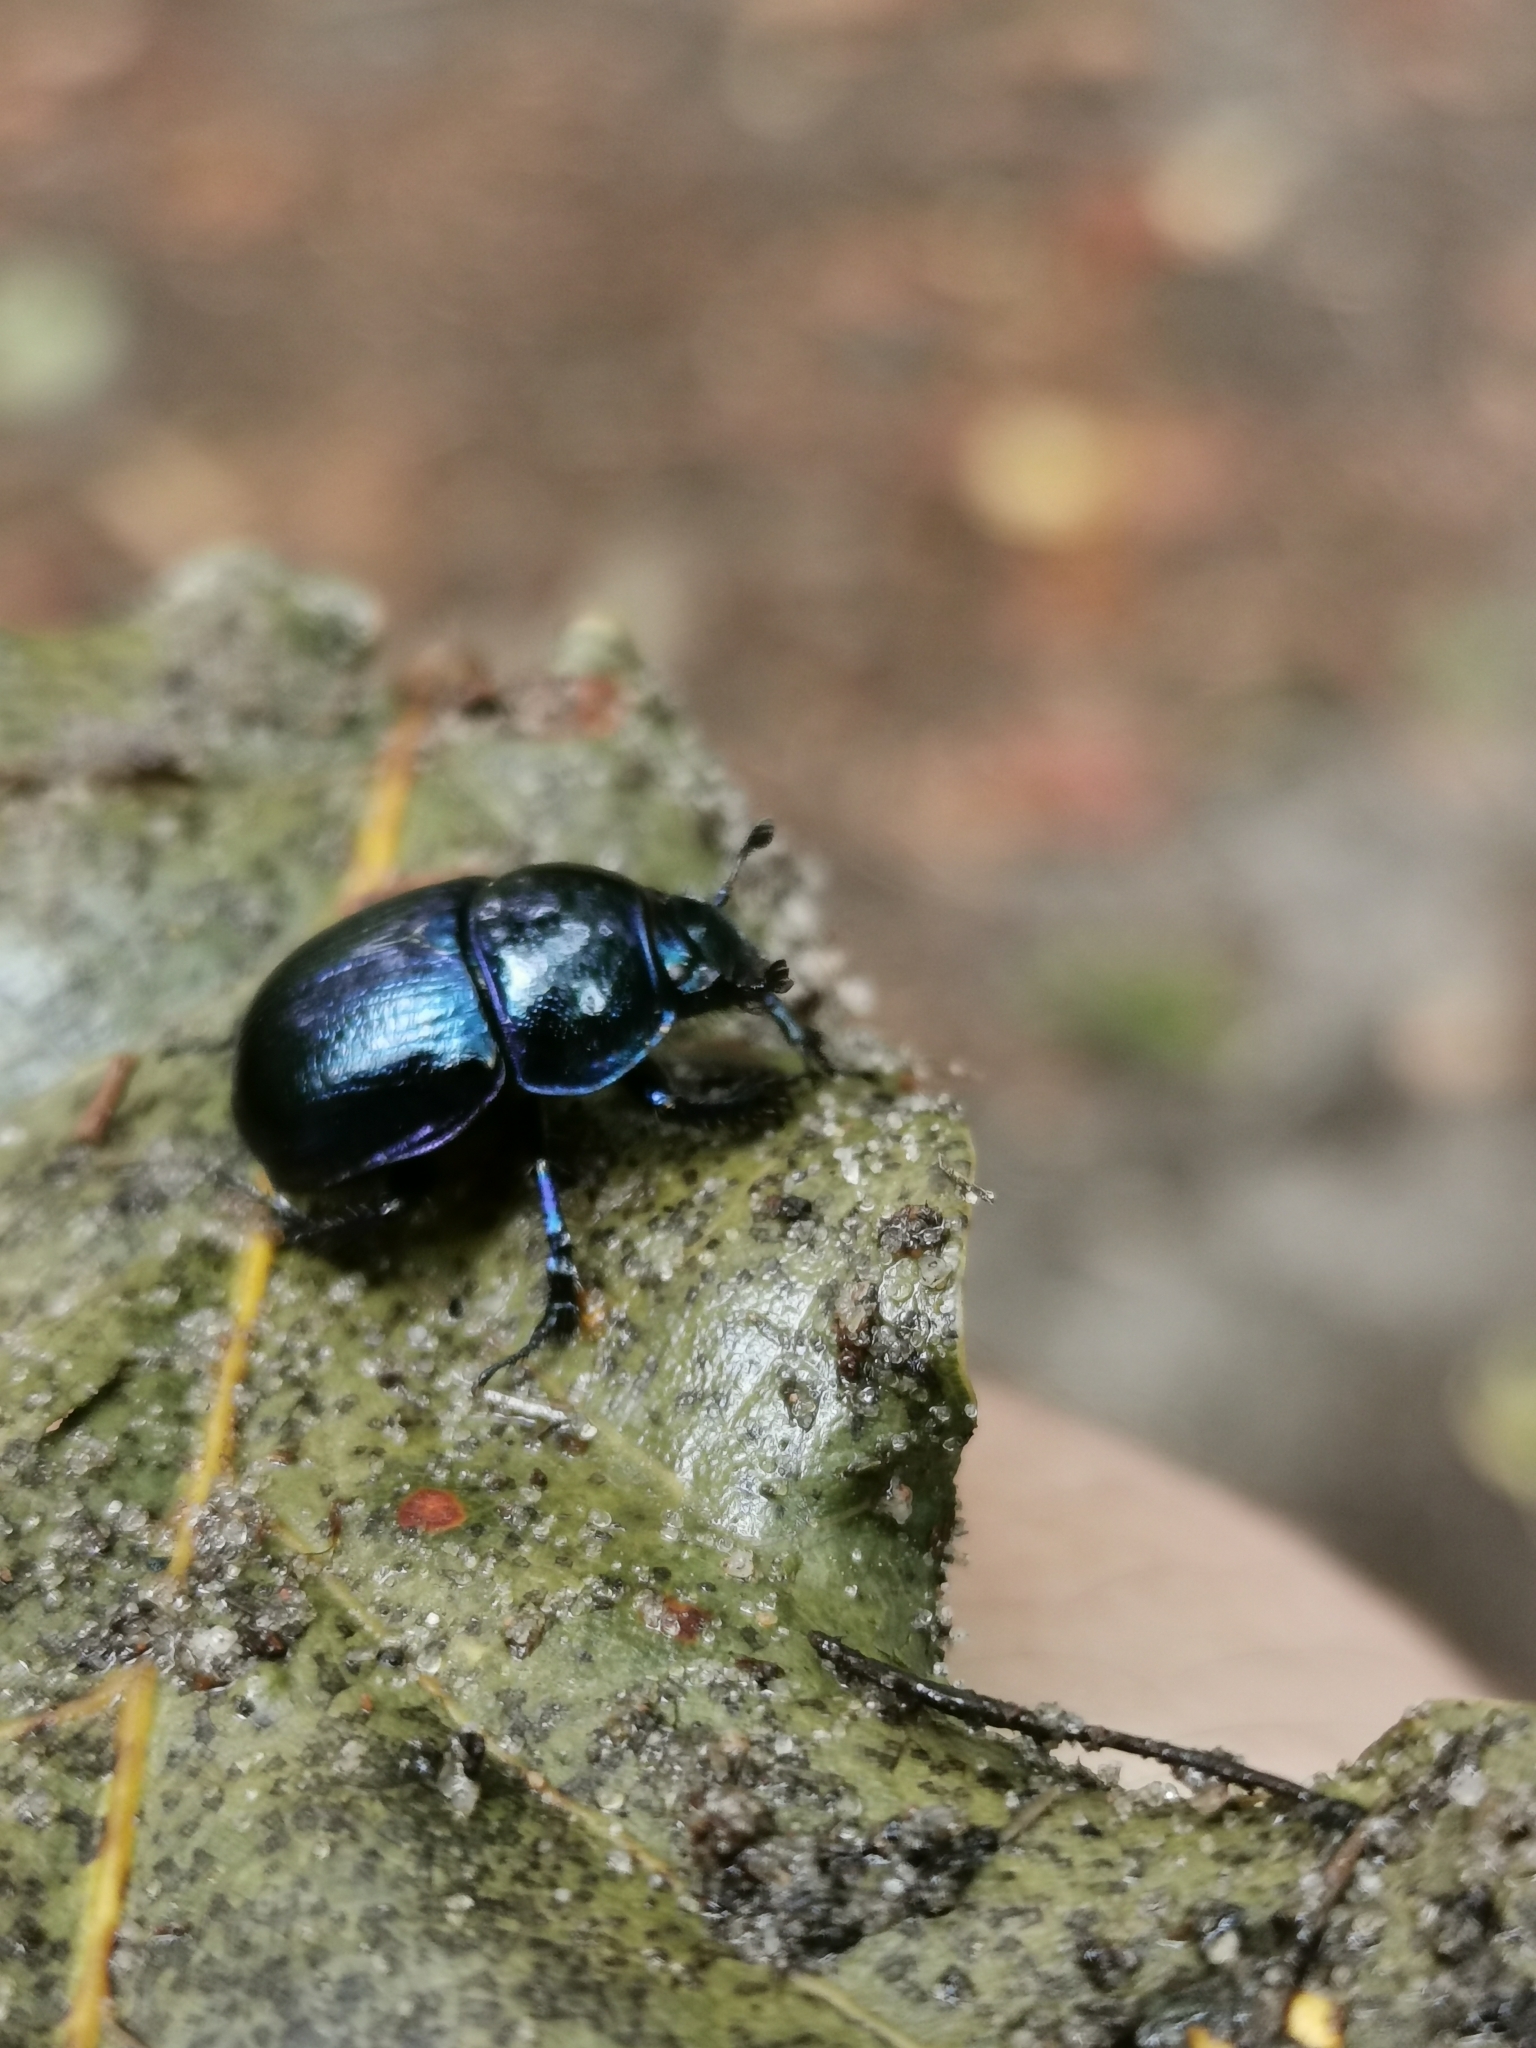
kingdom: Animalia
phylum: Arthropoda
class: Insecta
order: Coleoptera
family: Geotrupidae
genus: Anoplotrupes
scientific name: Anoplotrupes stercorosus
